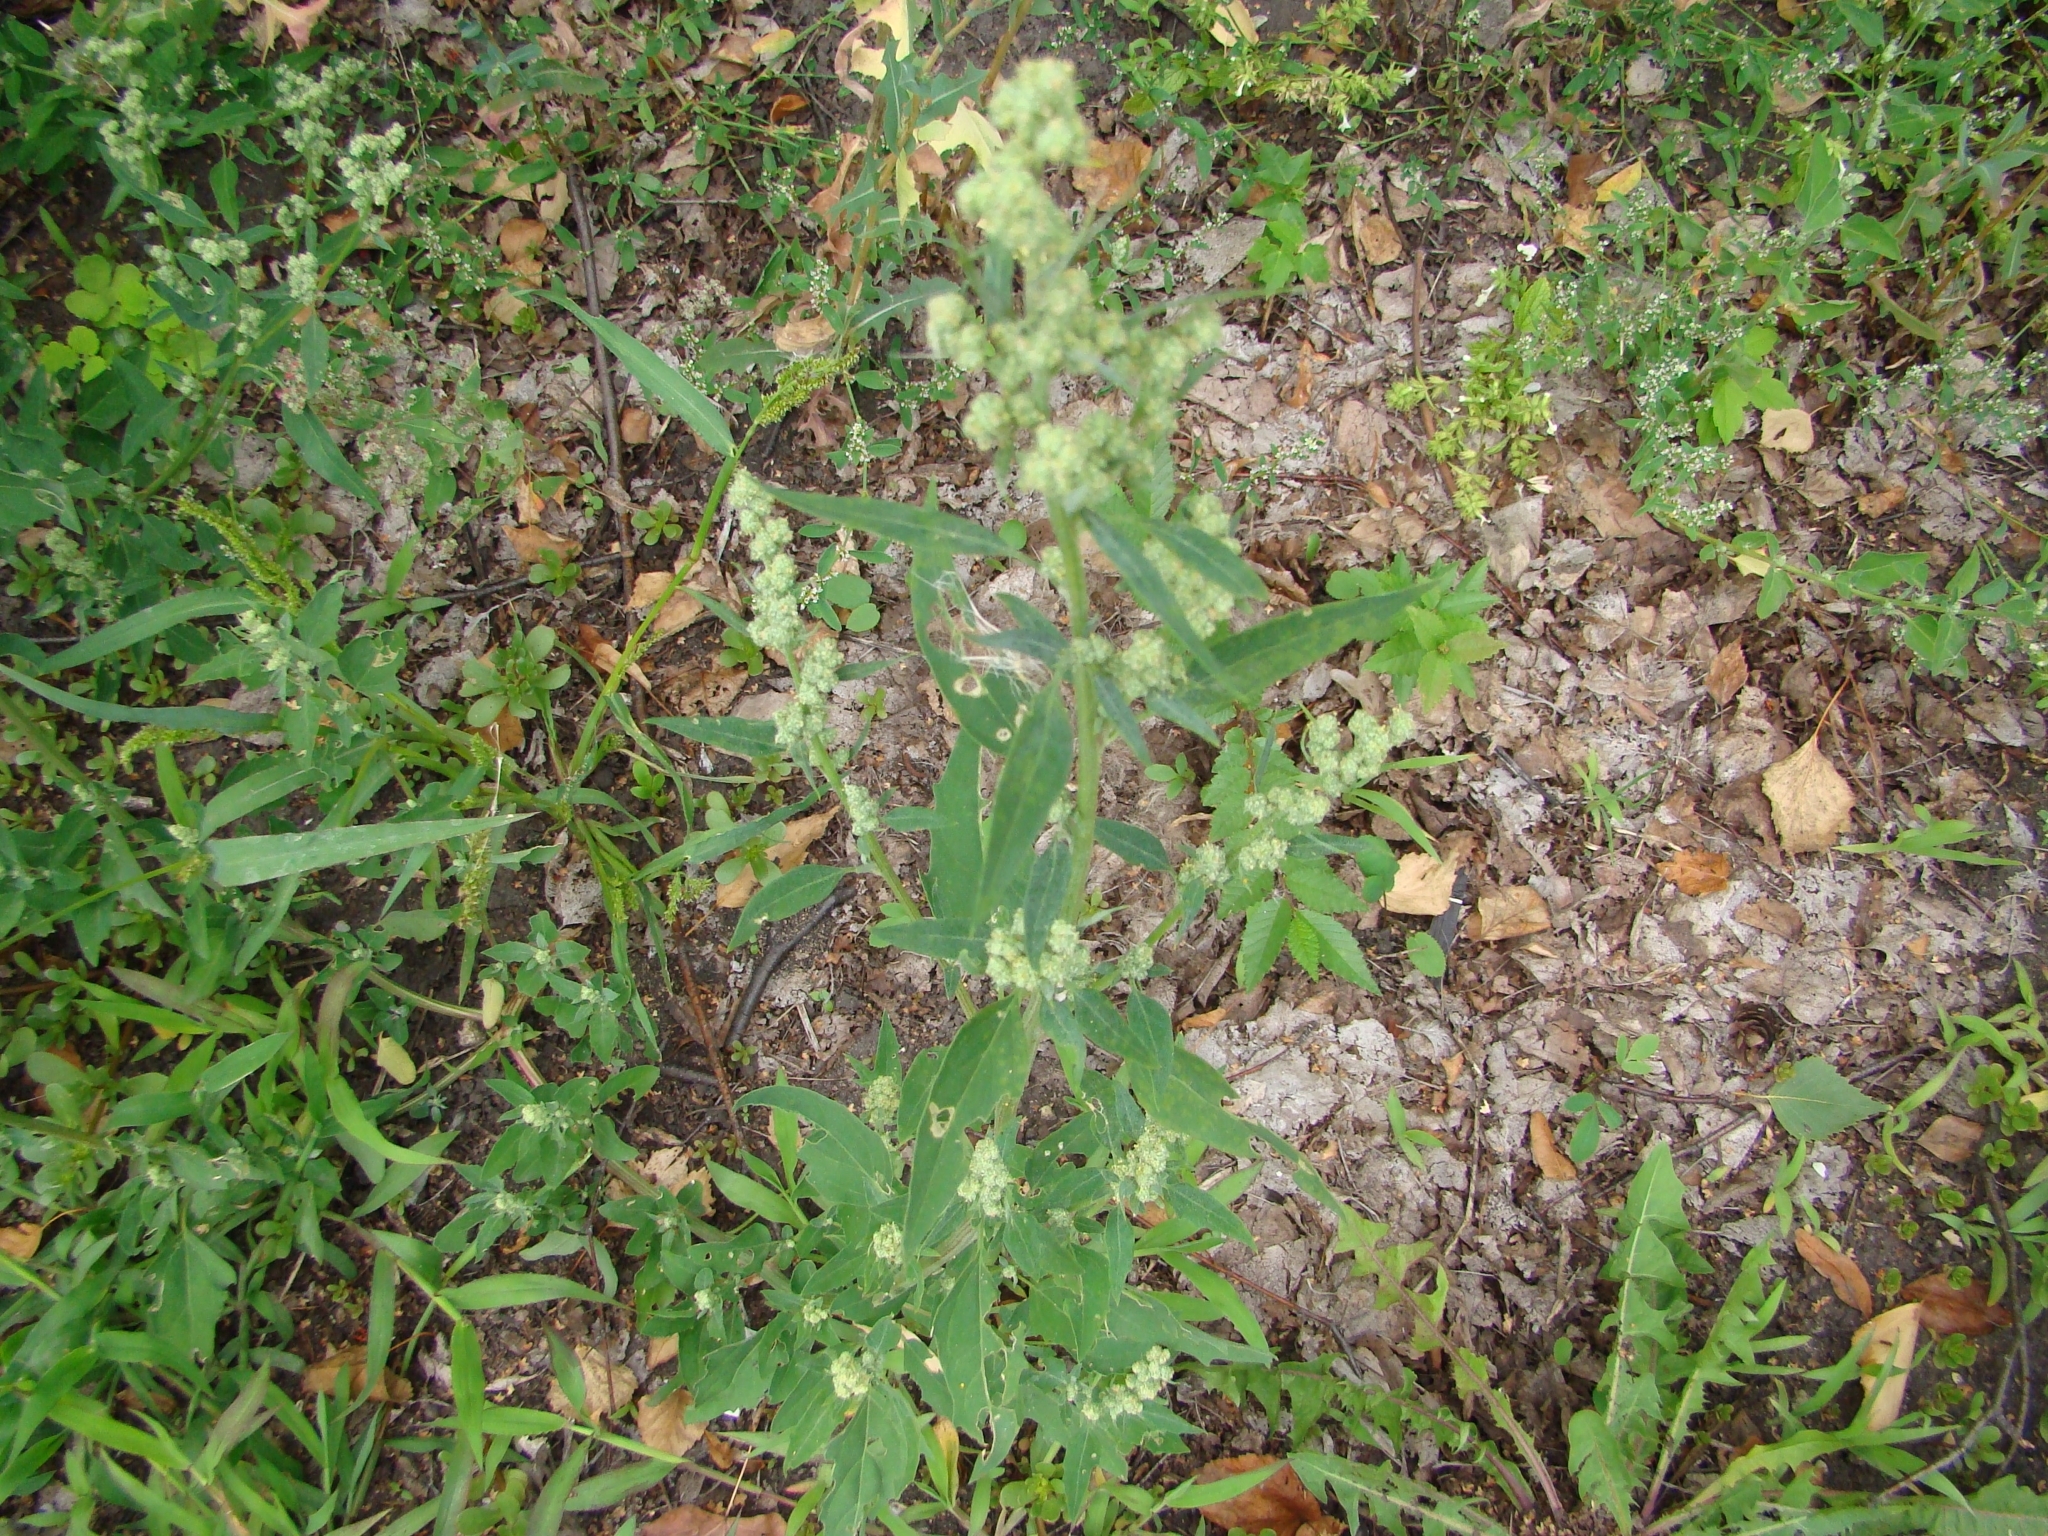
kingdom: Plantae
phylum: Tracheophyta
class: Magnoliopsida
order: Caryophyllales
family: Amaranthaceae
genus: Chenopodium
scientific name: Chenopodium album
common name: Fat-hen
